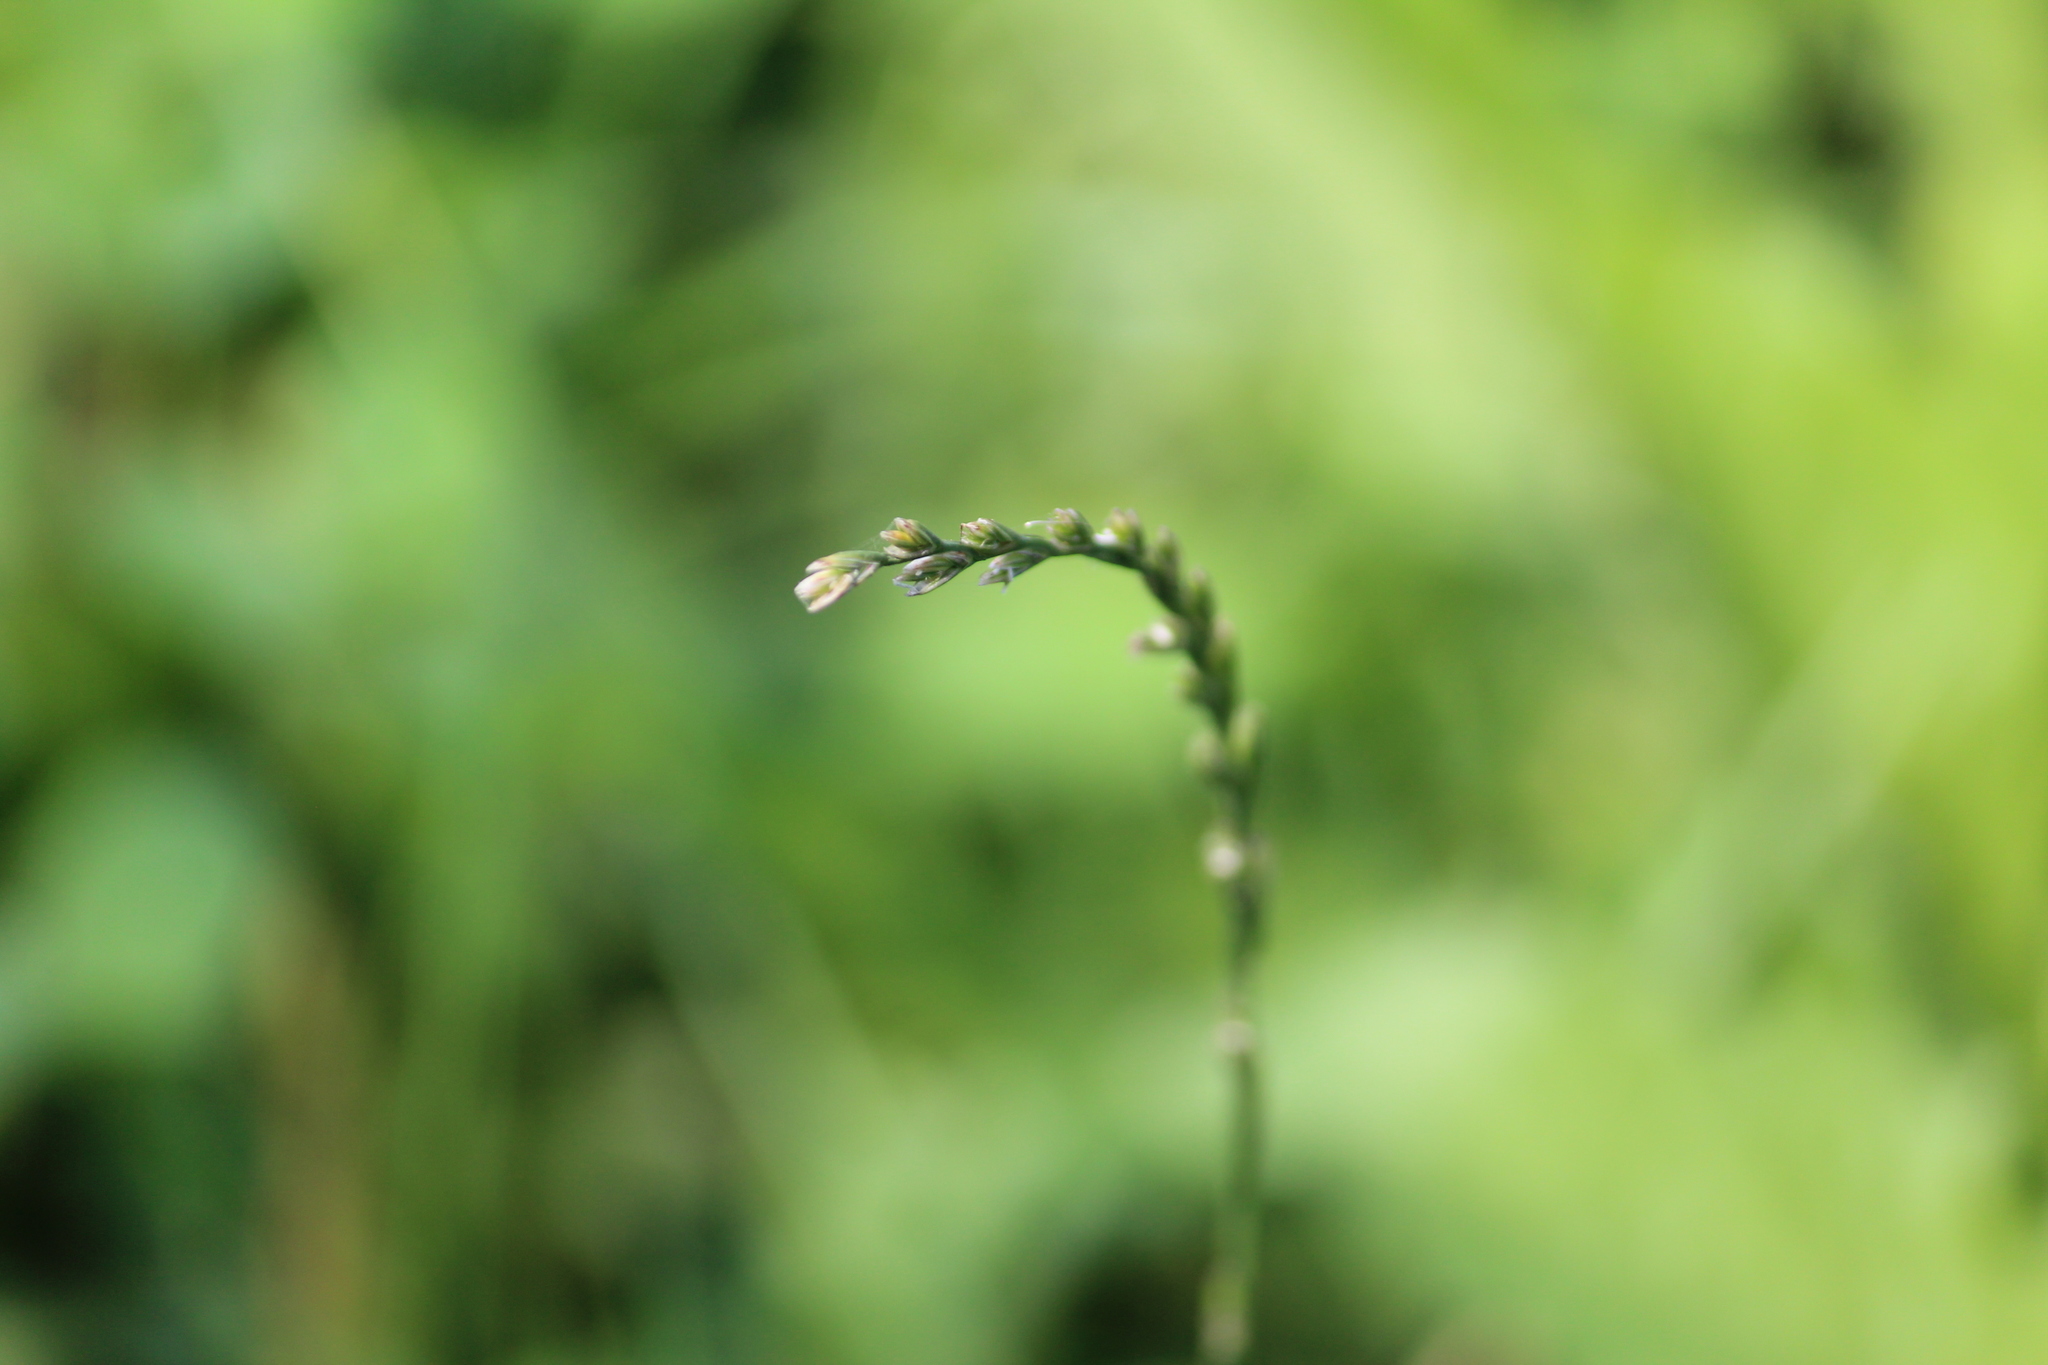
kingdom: Plantae
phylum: Tracheophyta
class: Liliopsida
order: Poales
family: Poaceae
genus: Lolium
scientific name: Lolium perenne
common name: Perennial ryegrass
